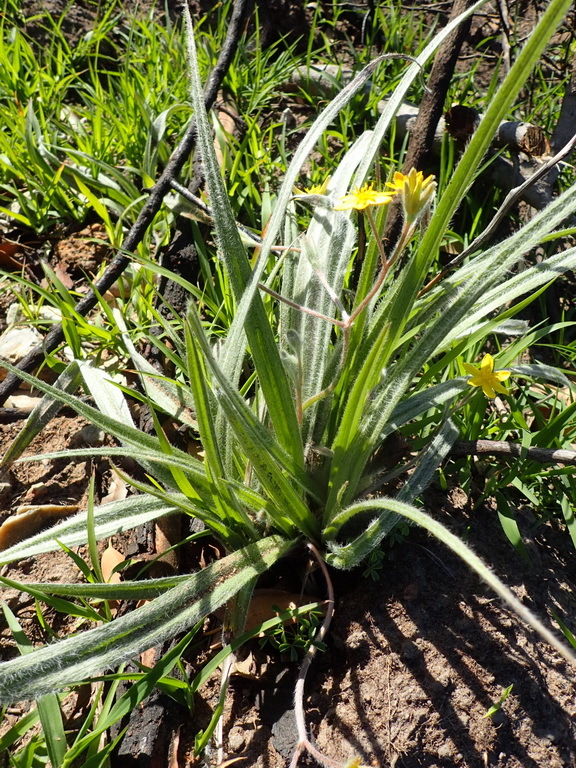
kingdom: Plantae
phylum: Tracheophyta
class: Liliopsida
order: Asparagales
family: Hypoxidaceae
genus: Hypoxis
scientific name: Hypoxis villosa
